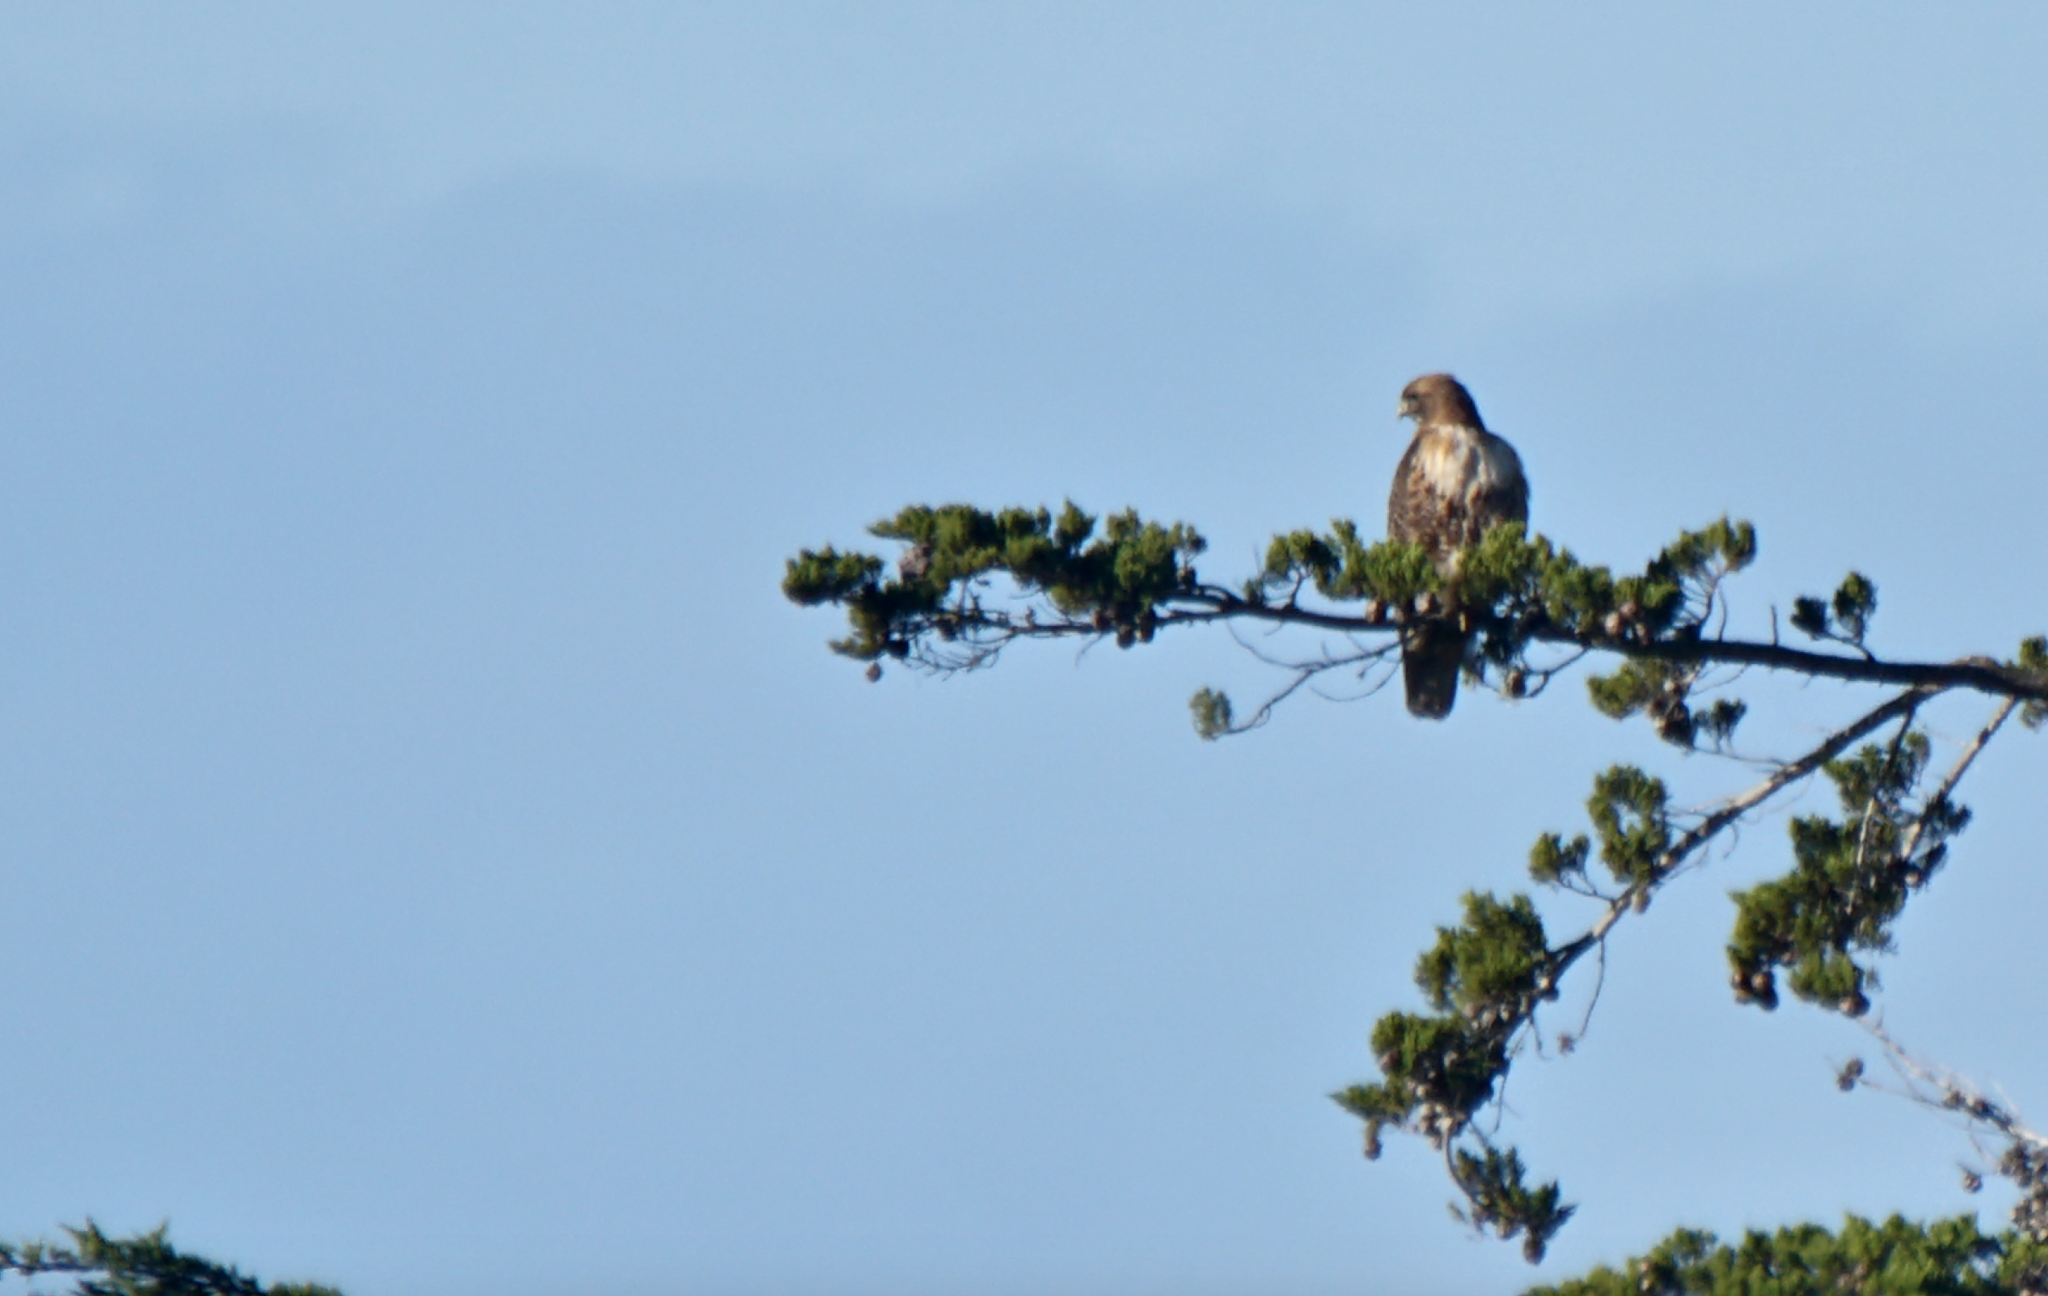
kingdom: Animalia
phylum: Chordata
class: Aves
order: Accipitriformes
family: Accipitridae
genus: Buteo
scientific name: Buteo jamaicensis
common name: Red-tailed hawk
